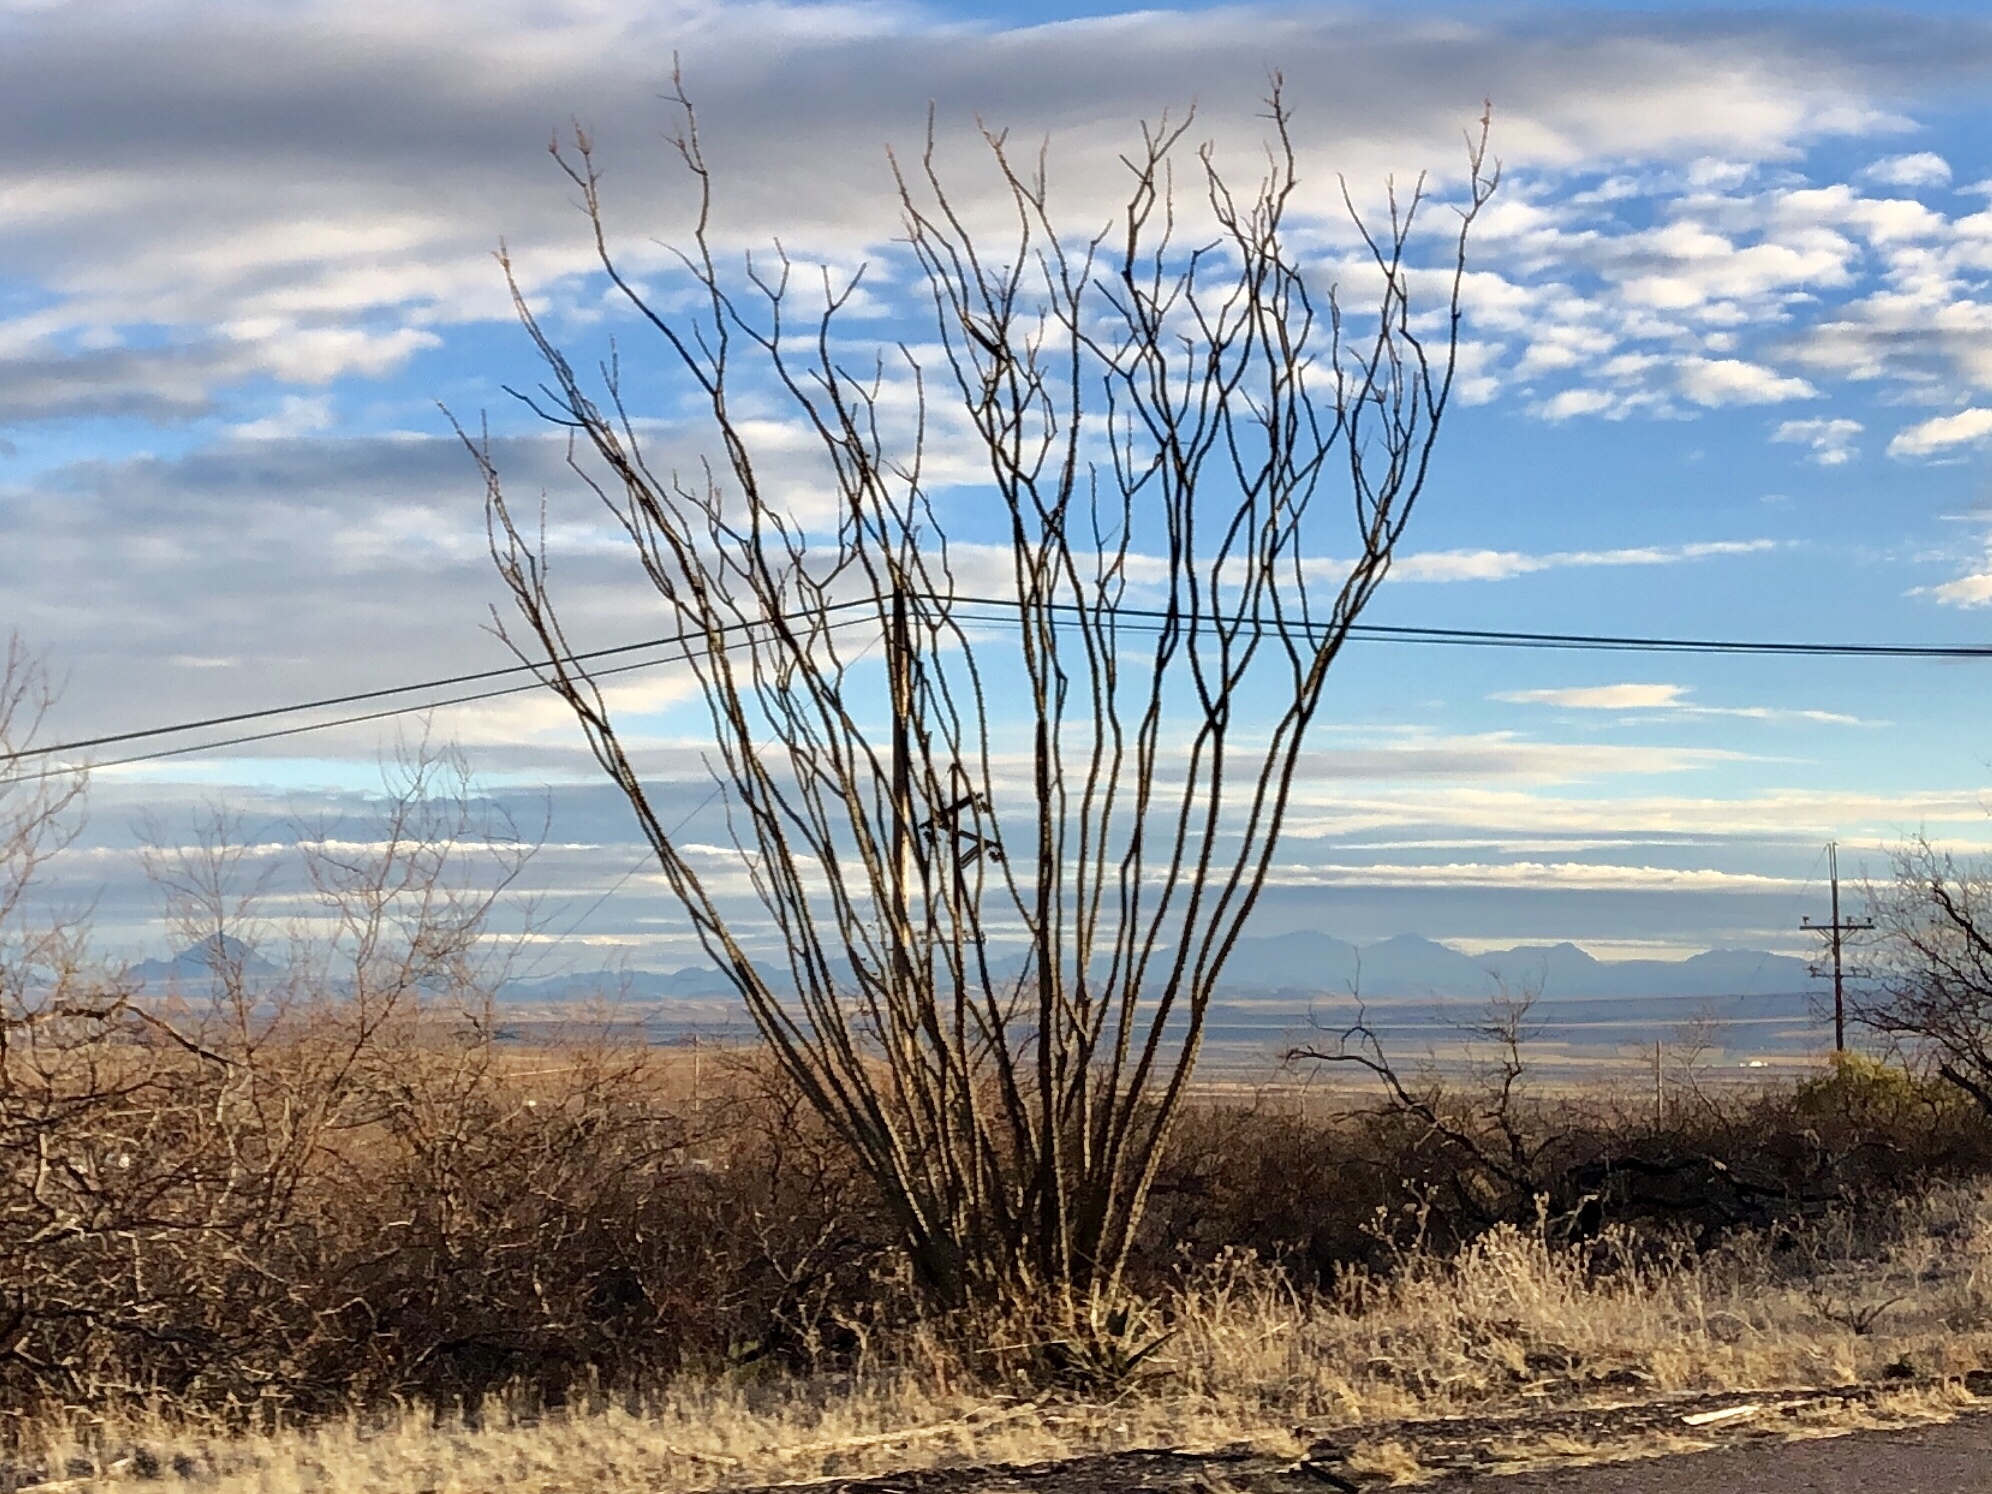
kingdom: Plantae
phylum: Tracheophyta
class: Magnoliopsida
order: Ericales
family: Fouquieriaceae
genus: Fouquieria
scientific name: Fouquieria splendens
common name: Vine-cactus
